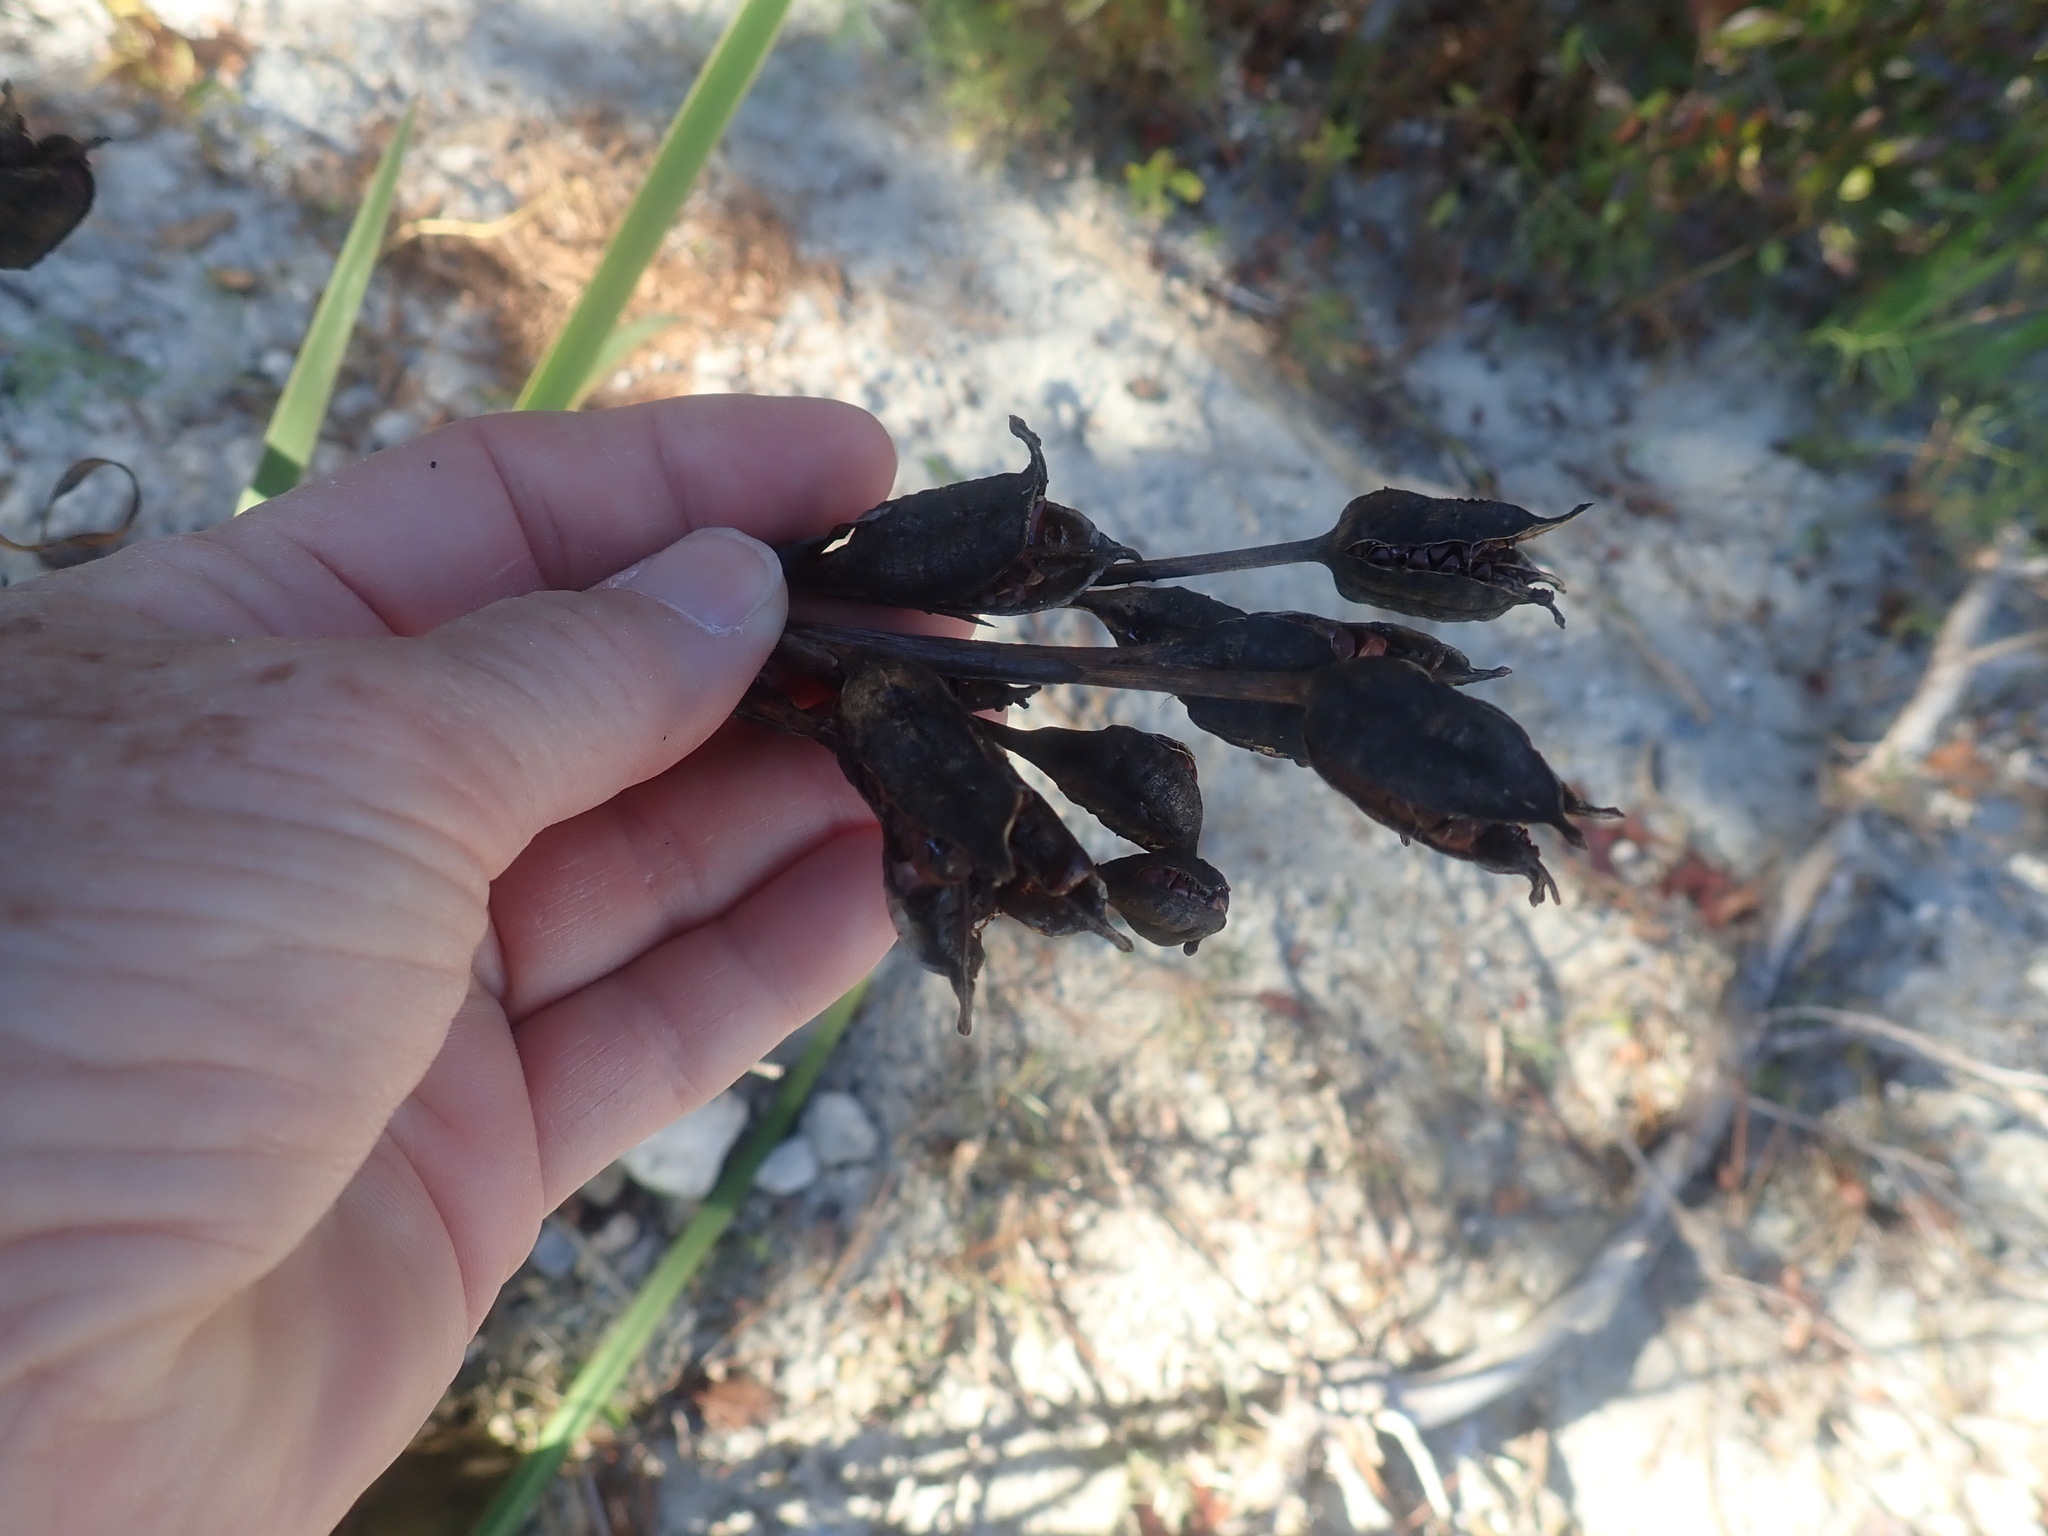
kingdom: Plantae
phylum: Tracheophyta
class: Liliopsida
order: Asparagales
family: Iridaceae
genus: Iris
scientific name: Iris
